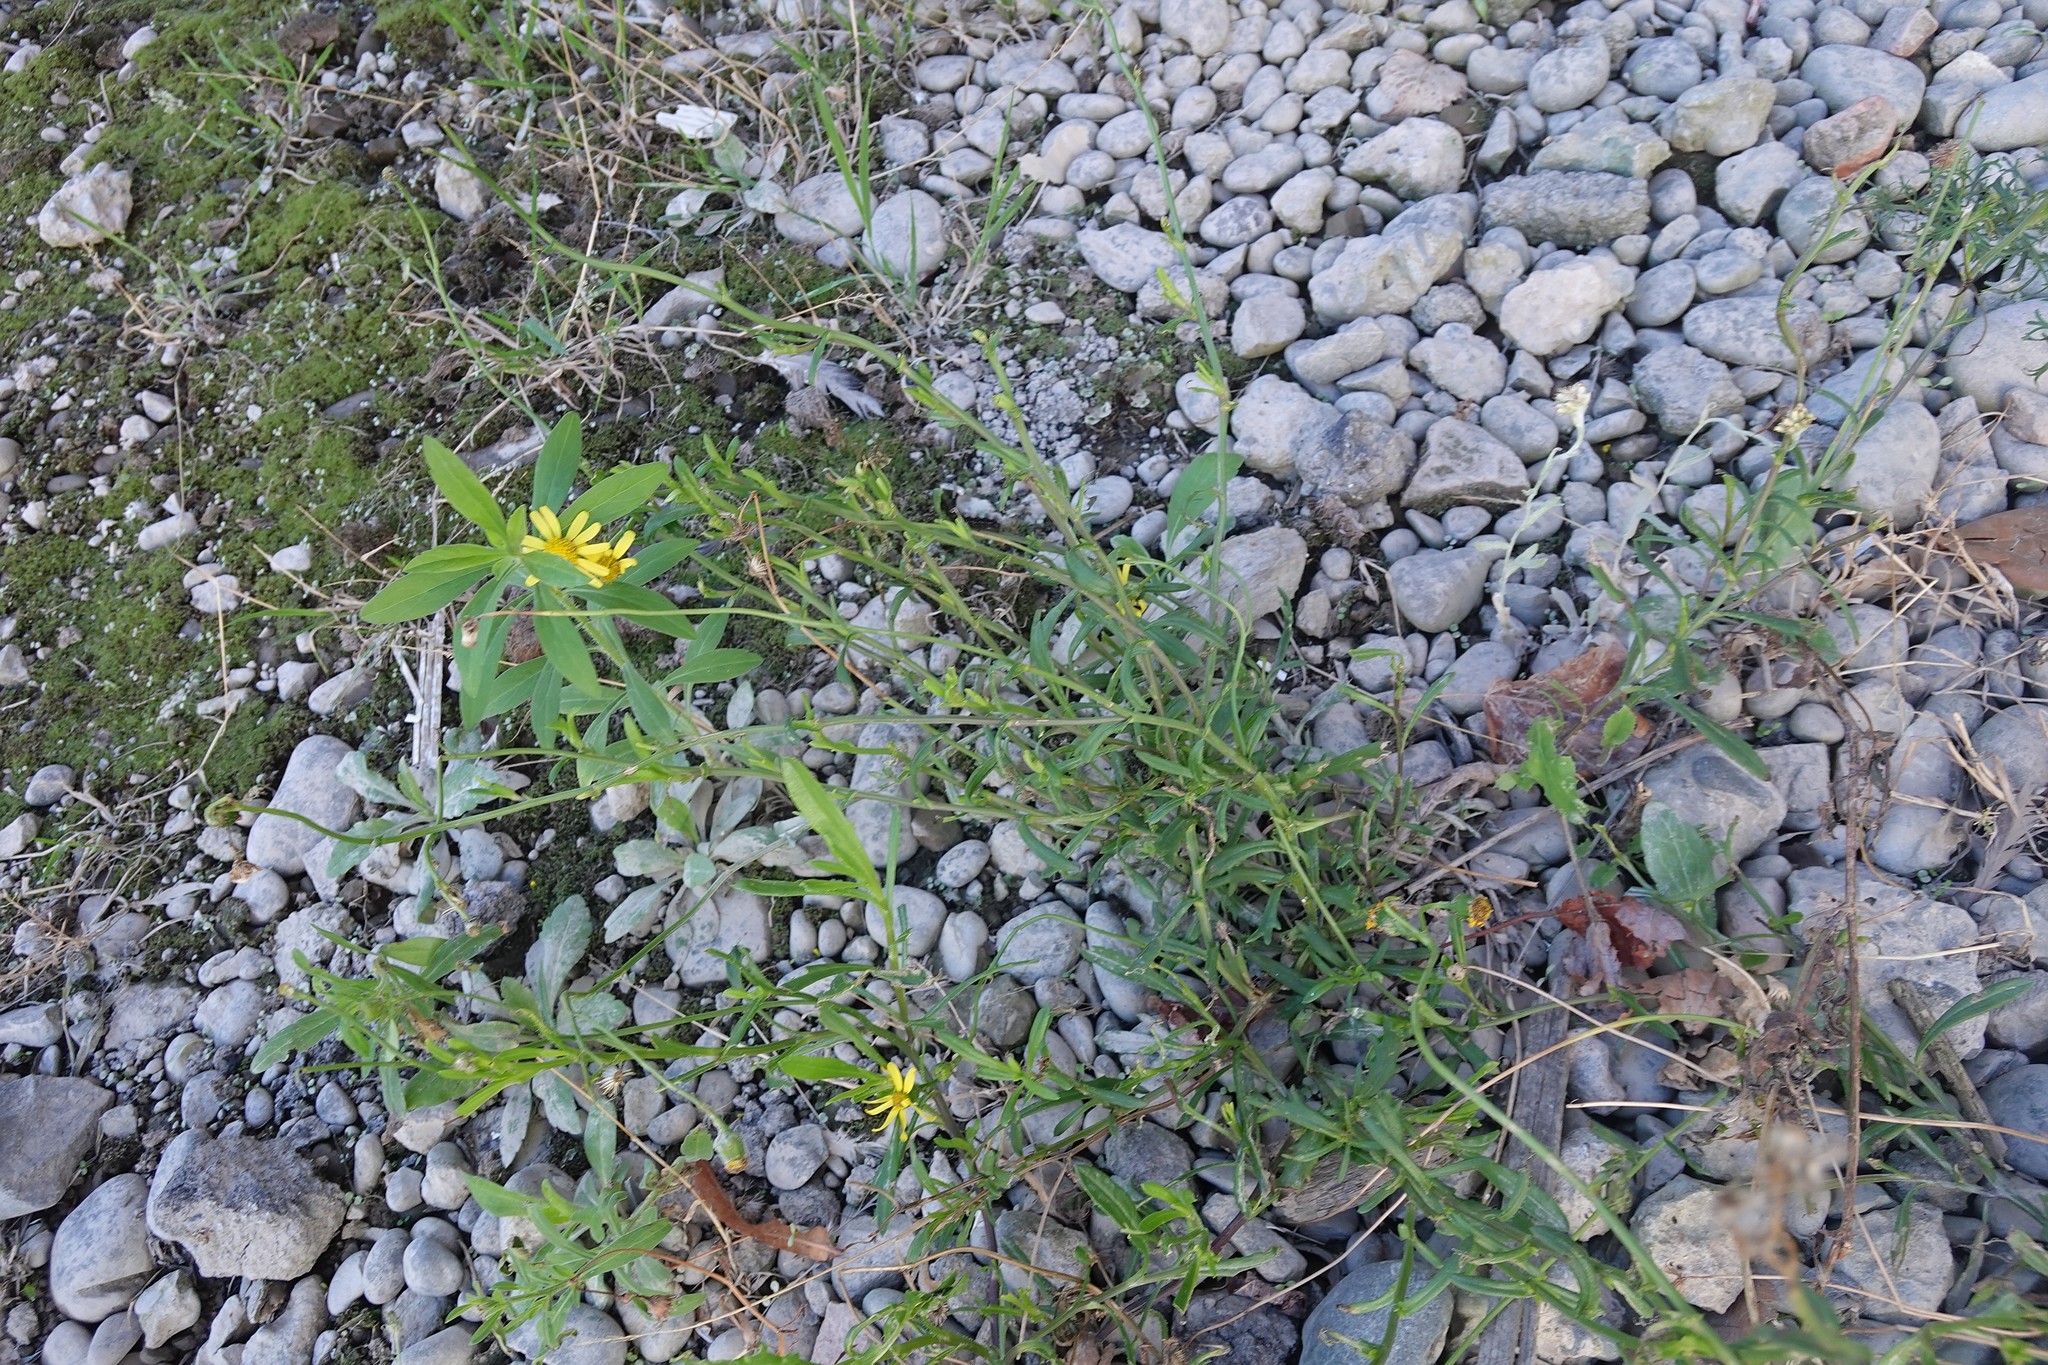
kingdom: Plantae
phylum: Tracheophyta
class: Magnoliopsida
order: Asterales
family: Asteraceae
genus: Senecio
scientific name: Senecio skirrhodon
